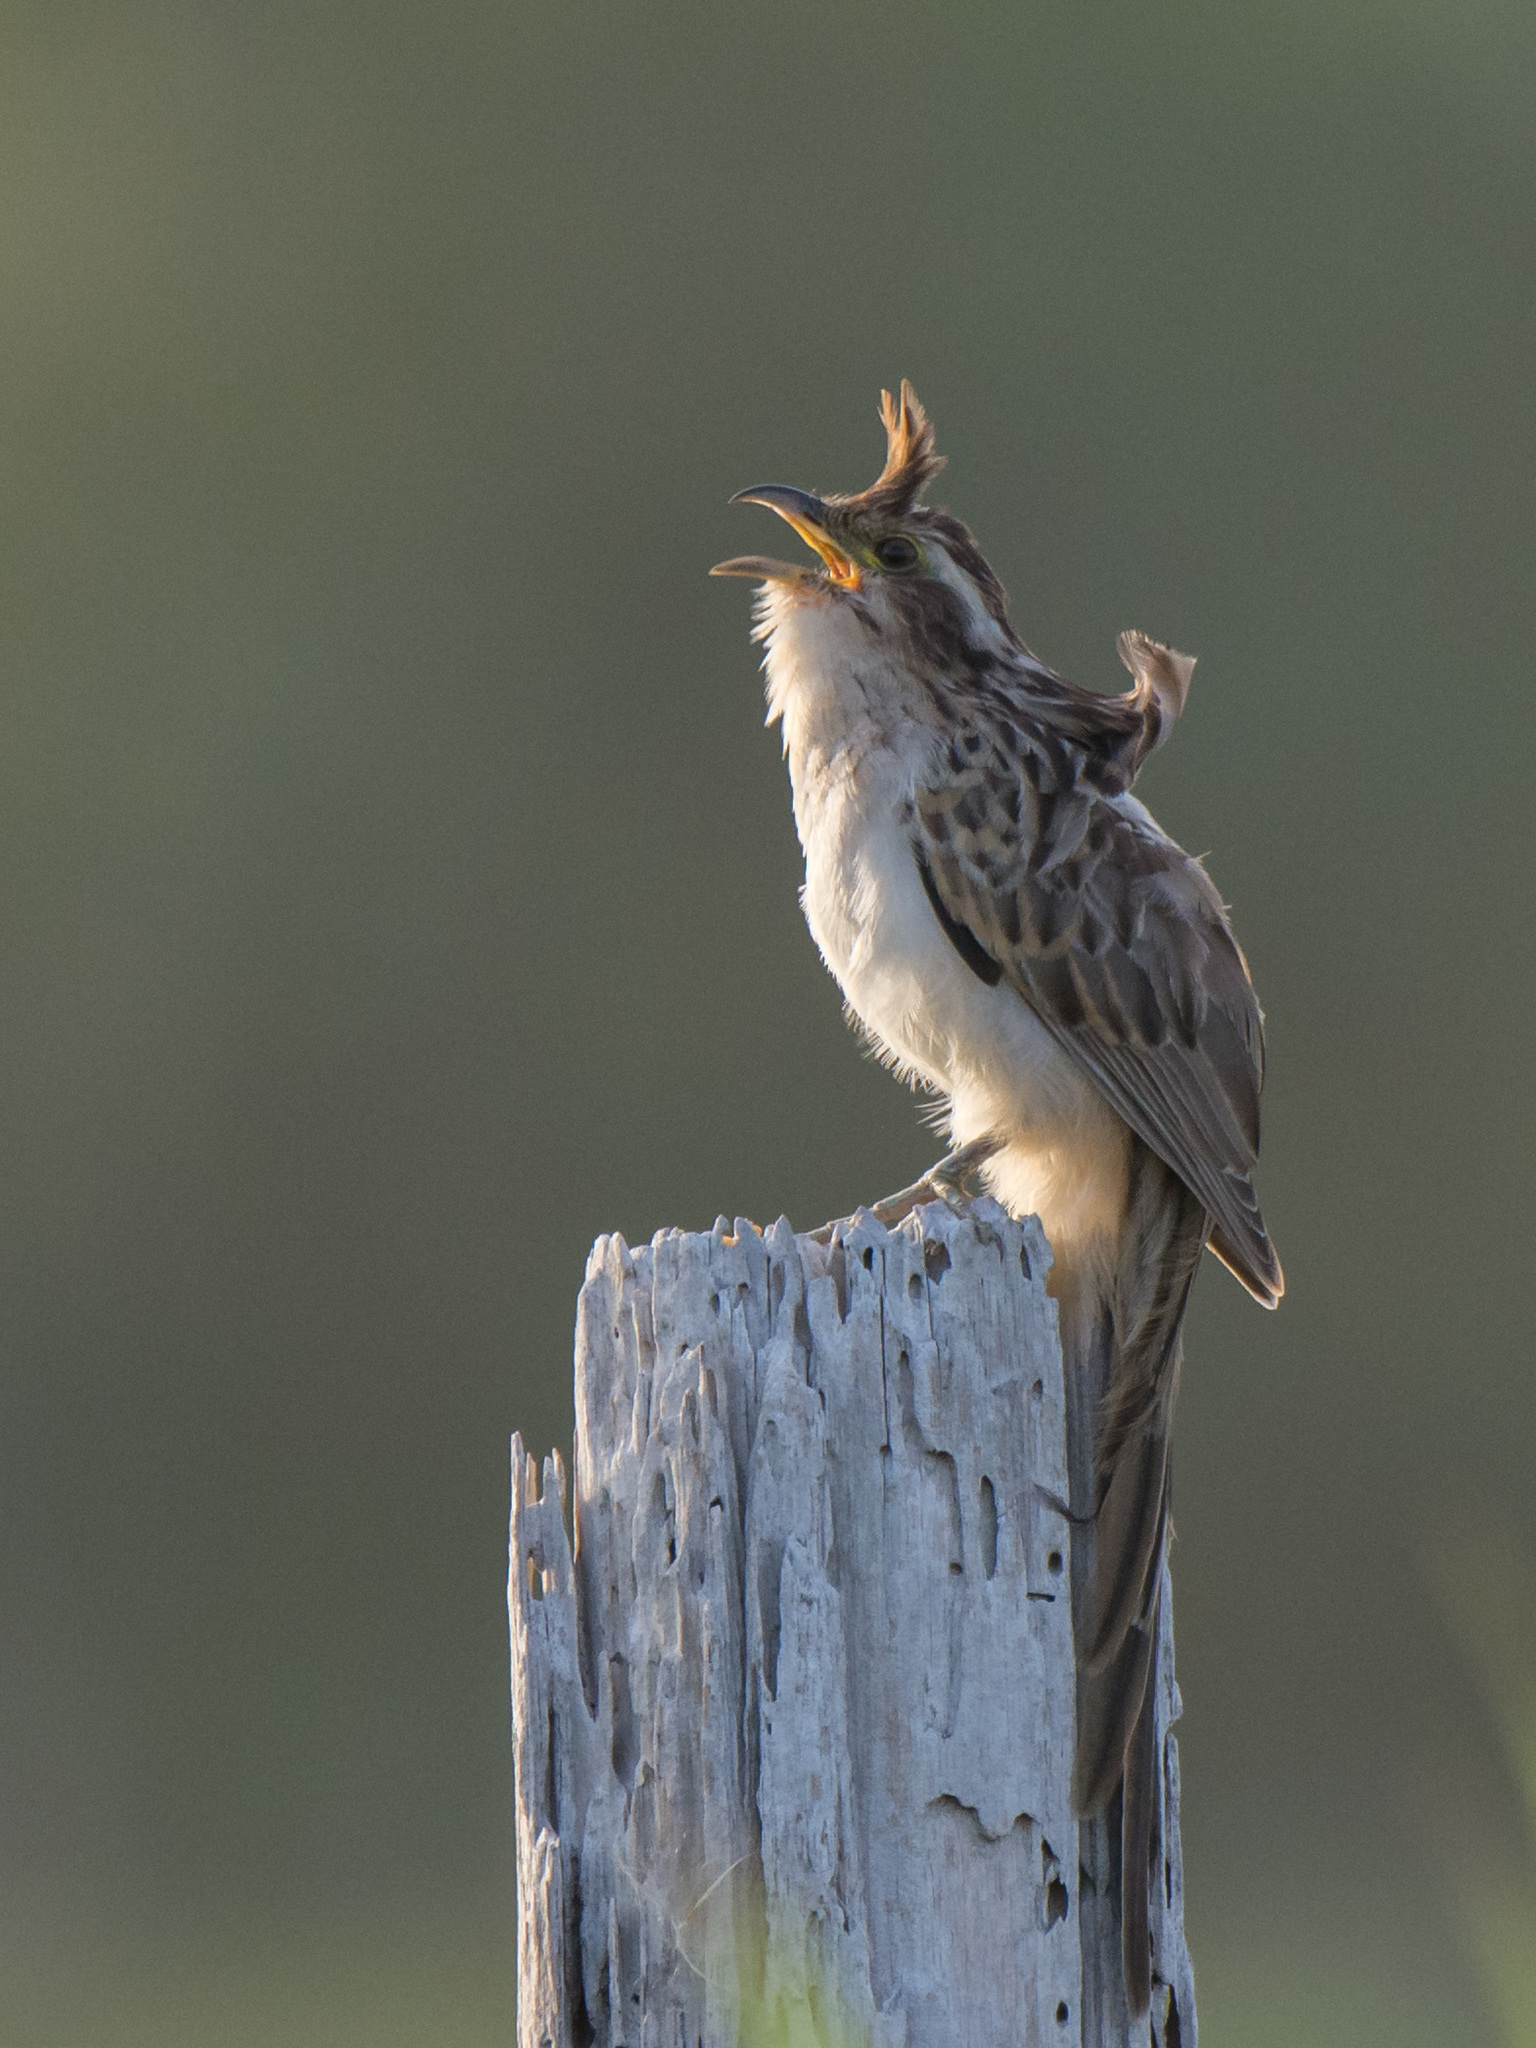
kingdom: Animalia
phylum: Chordata
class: Aves
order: Cuculiformes
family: Cuculidae
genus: Tapera
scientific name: Tapera naevia
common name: Striped cuckoo
